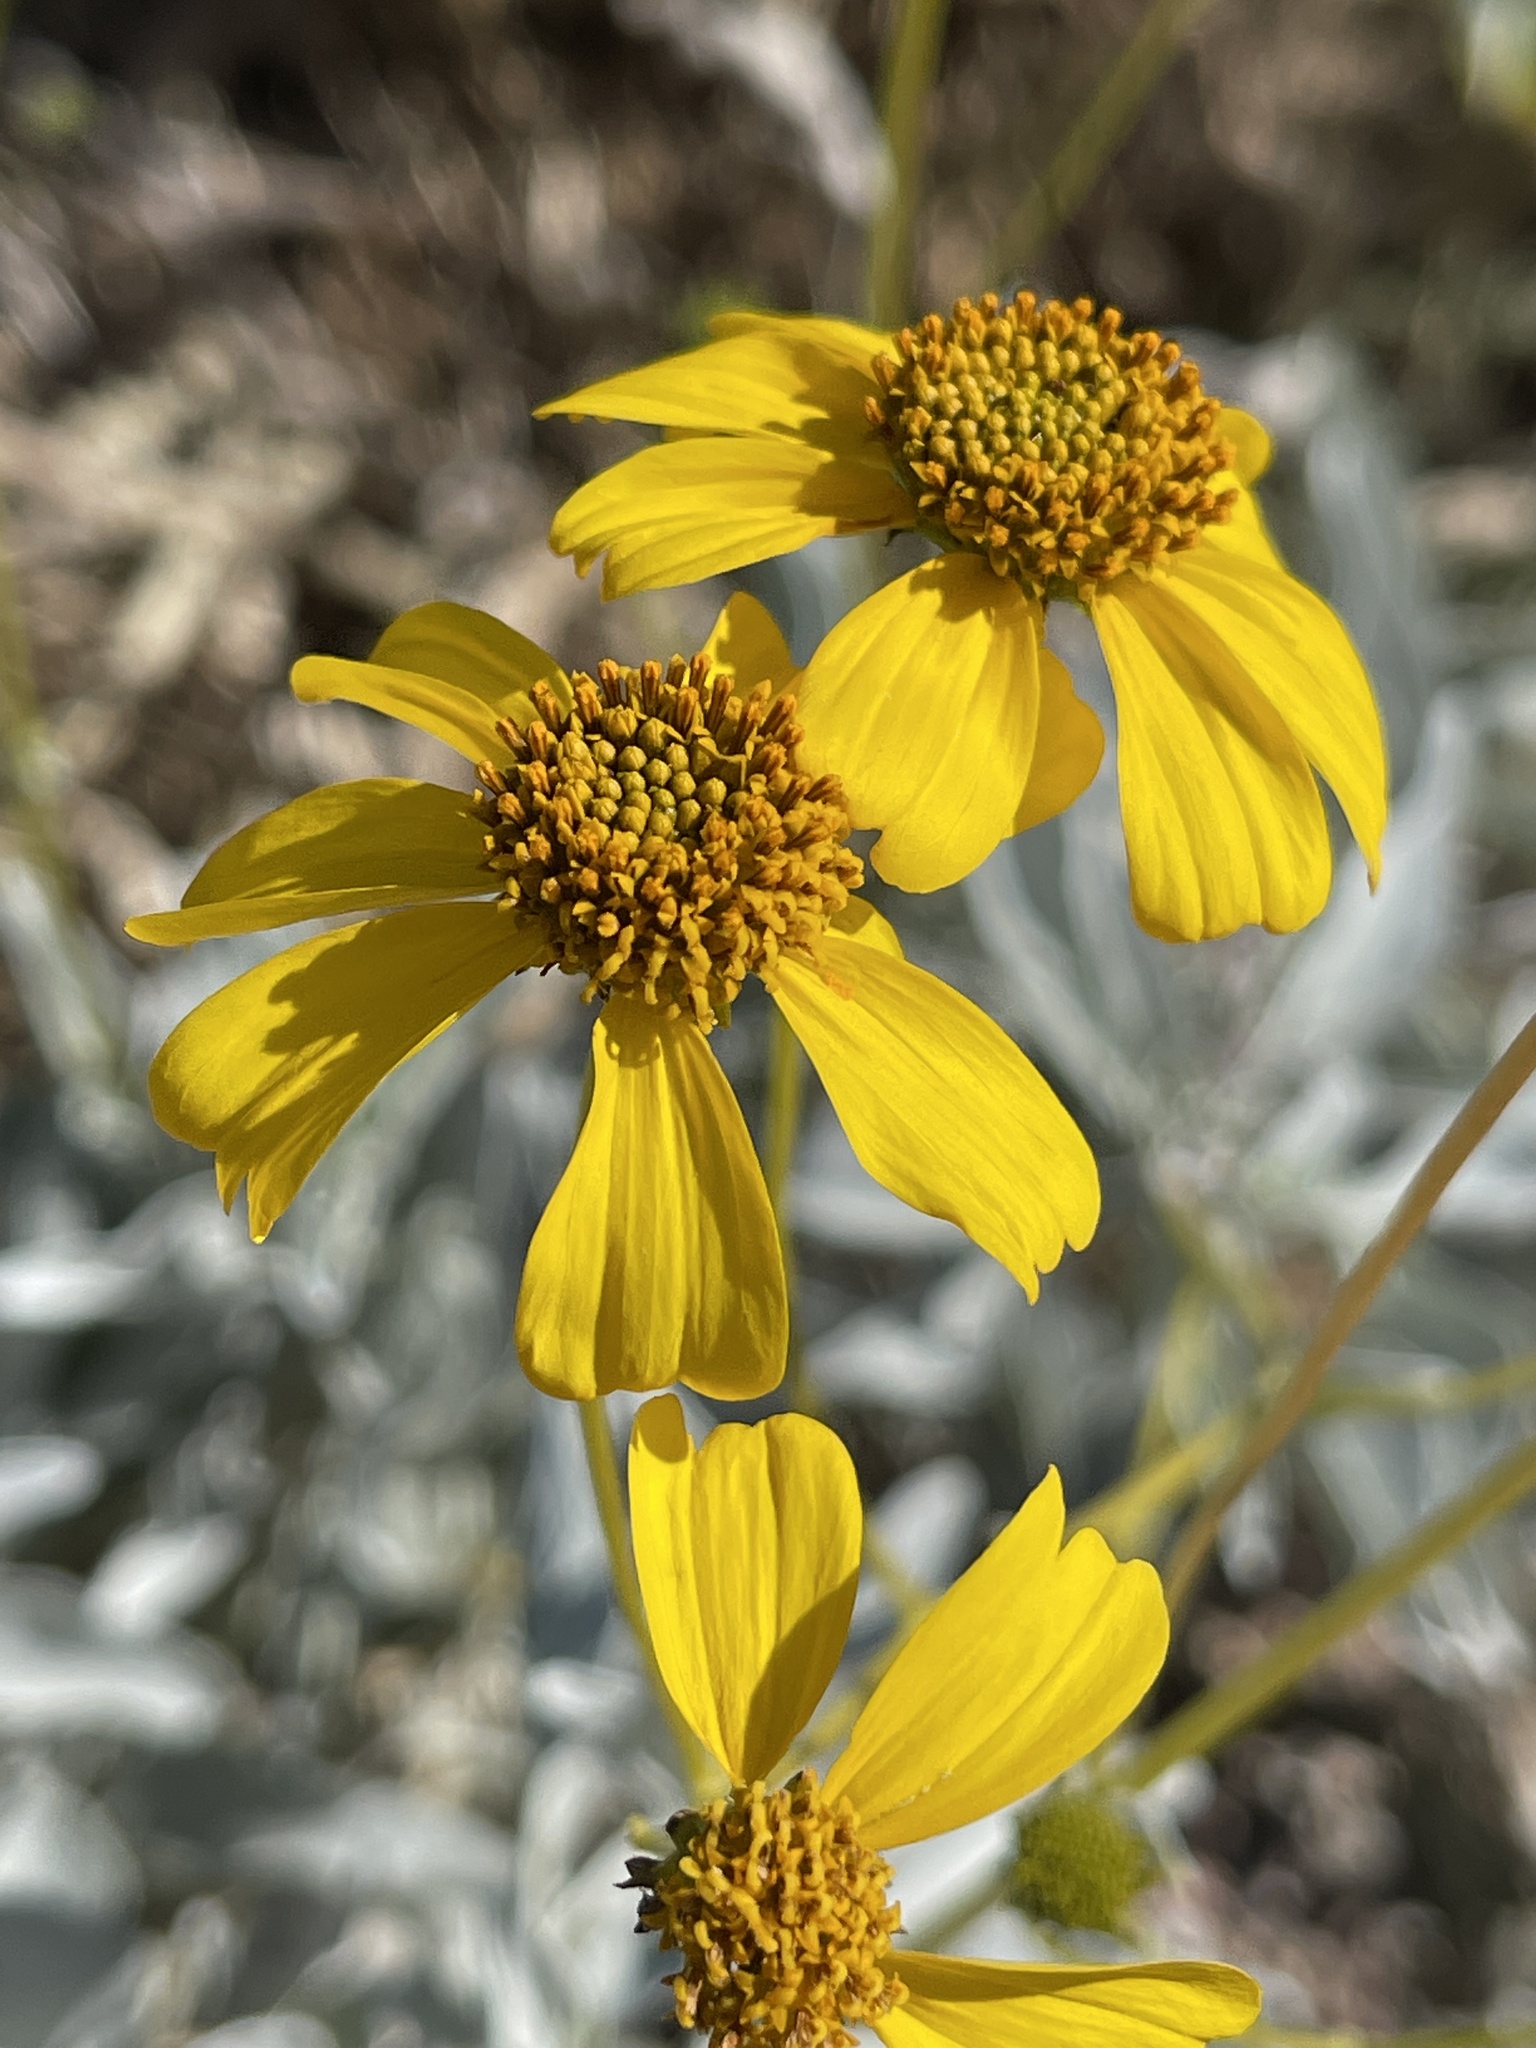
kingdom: Plantae
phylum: Tracheophyta
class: Magnoliopsida
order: Asterales
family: Asteraceae
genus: Encelia
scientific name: Encelia farinosa
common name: Brittlebush
